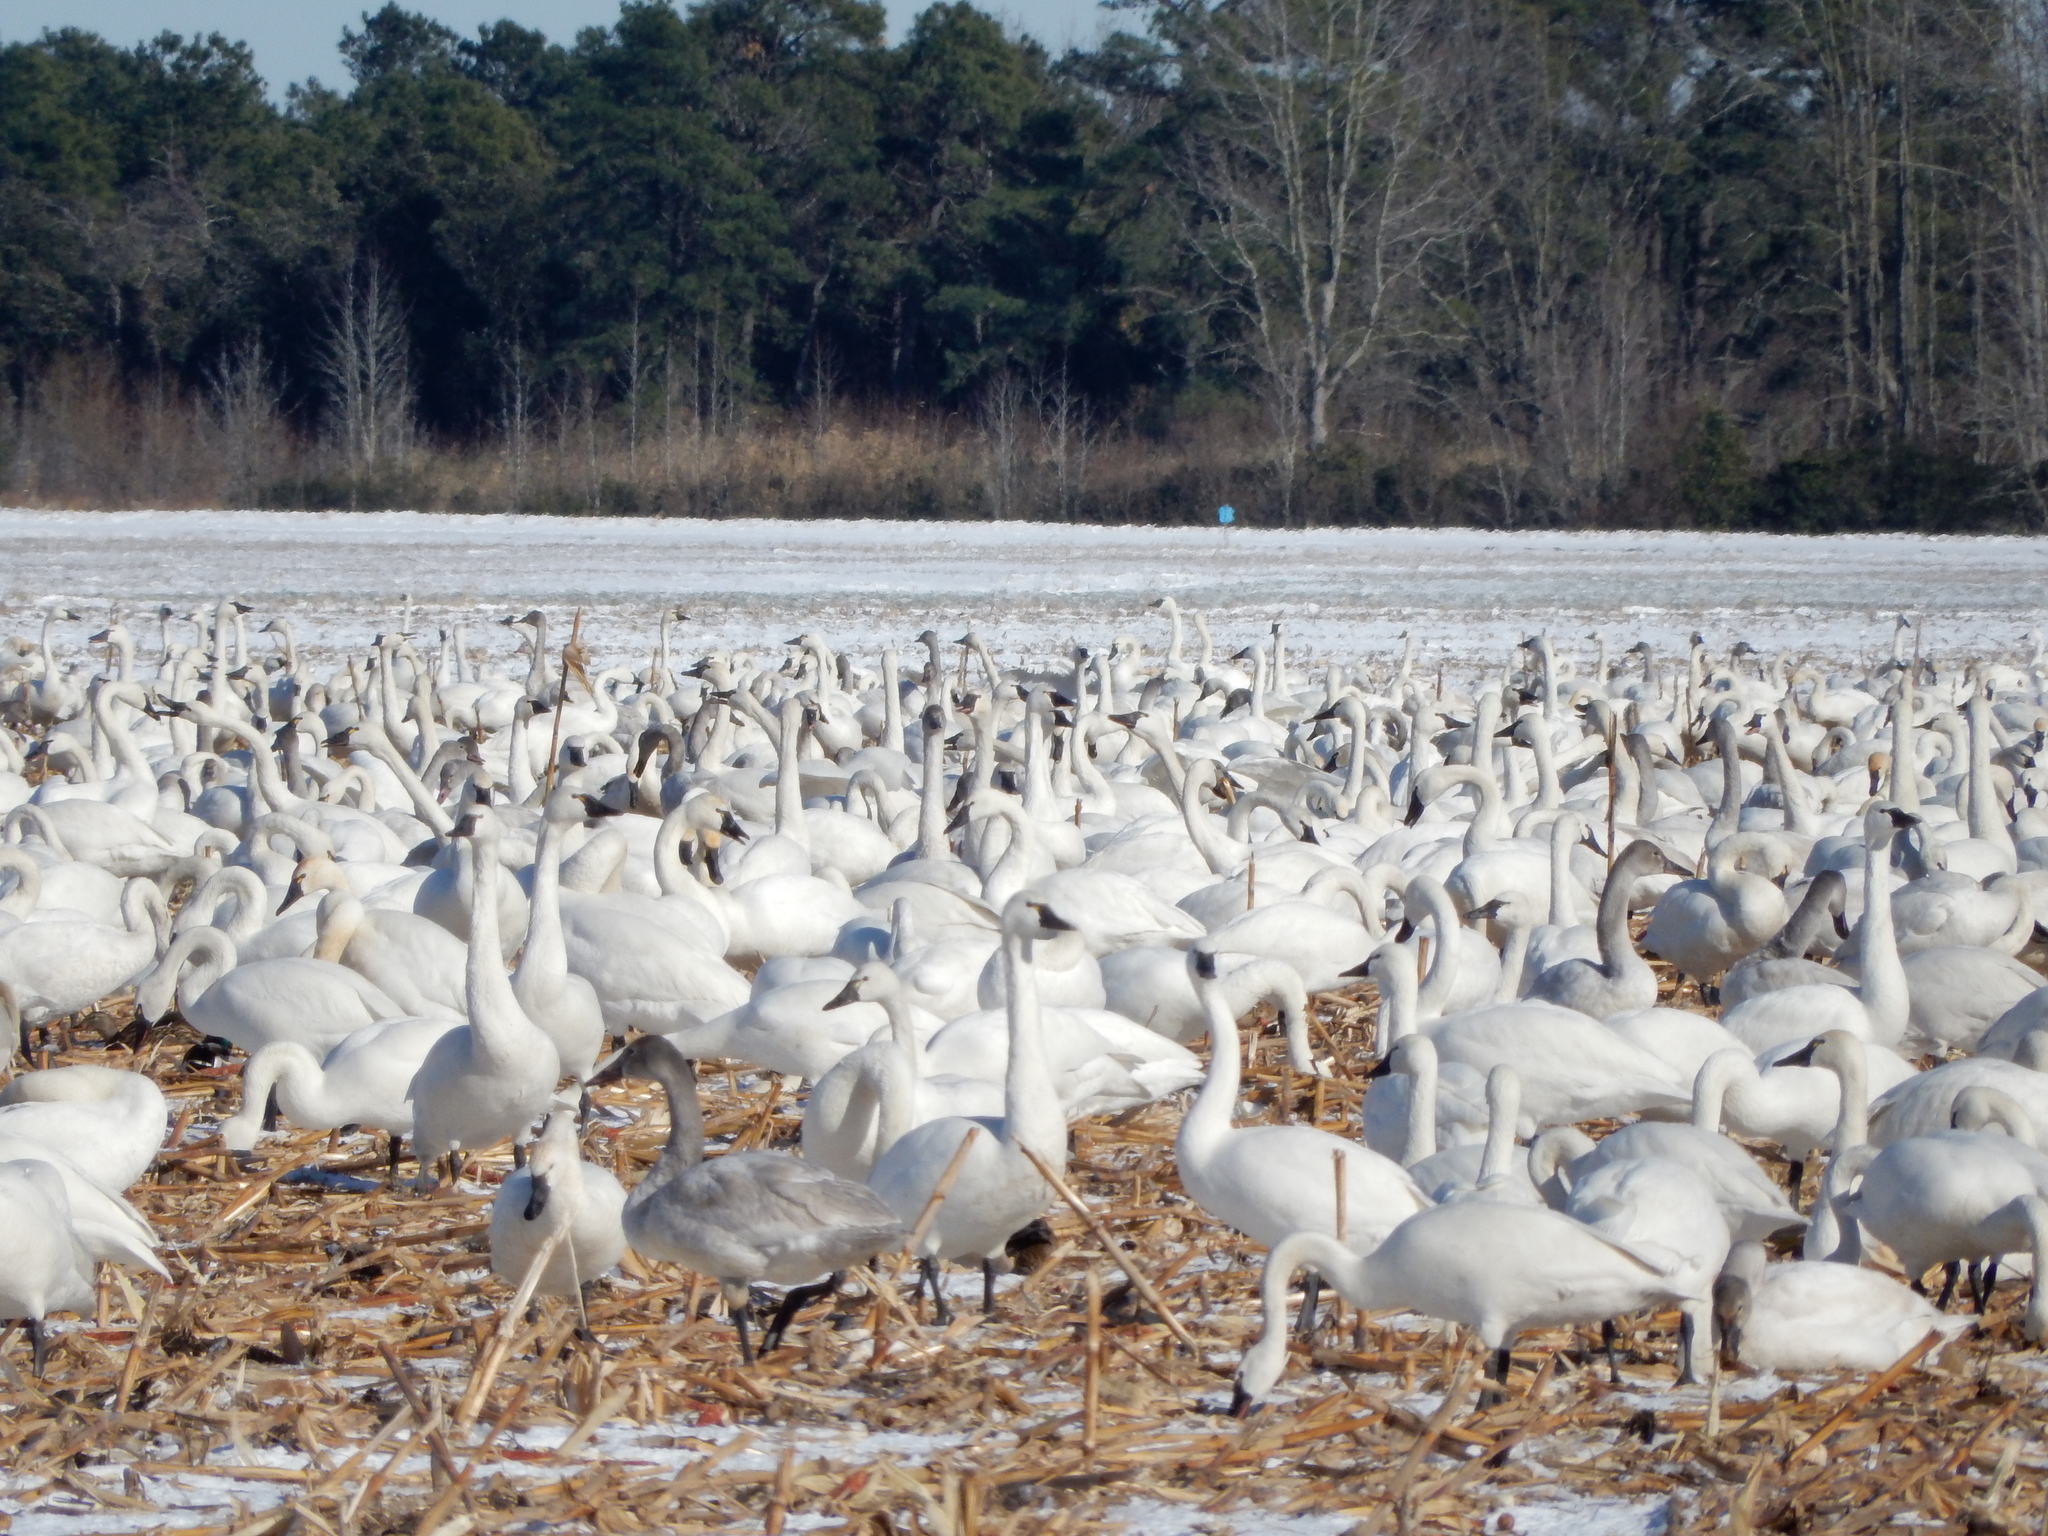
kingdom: Animalia
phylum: Chordata
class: Aves
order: Anseriformes
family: Anatidae
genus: Cygnus
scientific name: Cygnus columbianus
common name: Tundra swan
